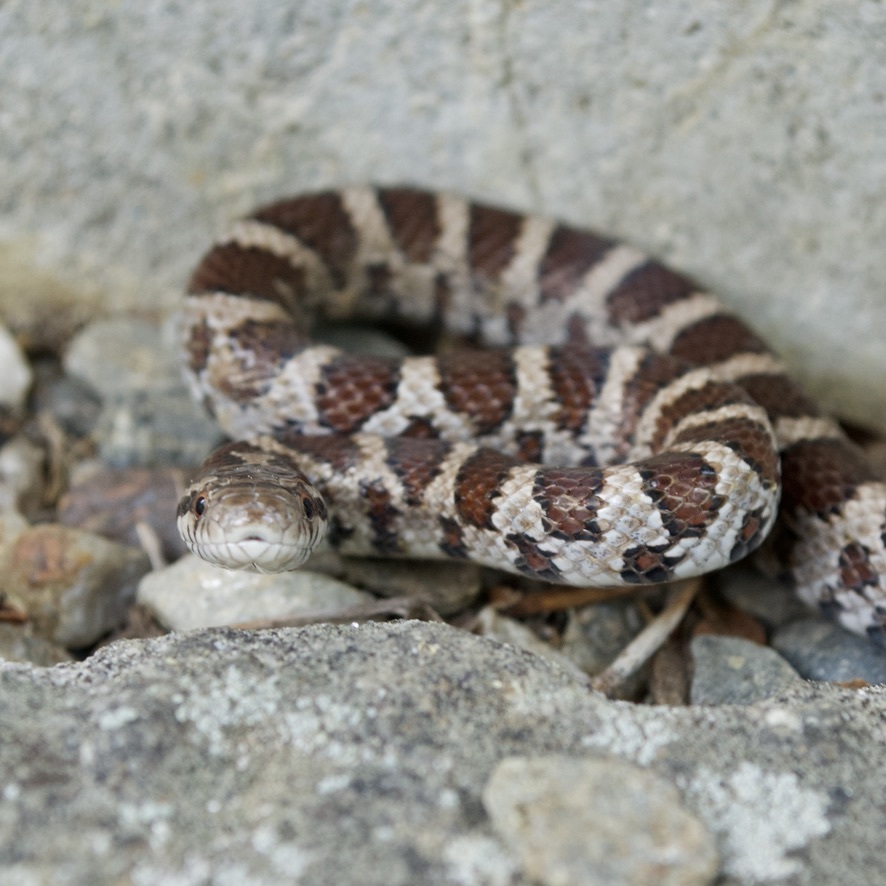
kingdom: Animalia
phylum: Chordata
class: Squamata
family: Colubridae
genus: Lampropeltis
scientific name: Lampropeltis triangulum
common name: Eastern milksnake
